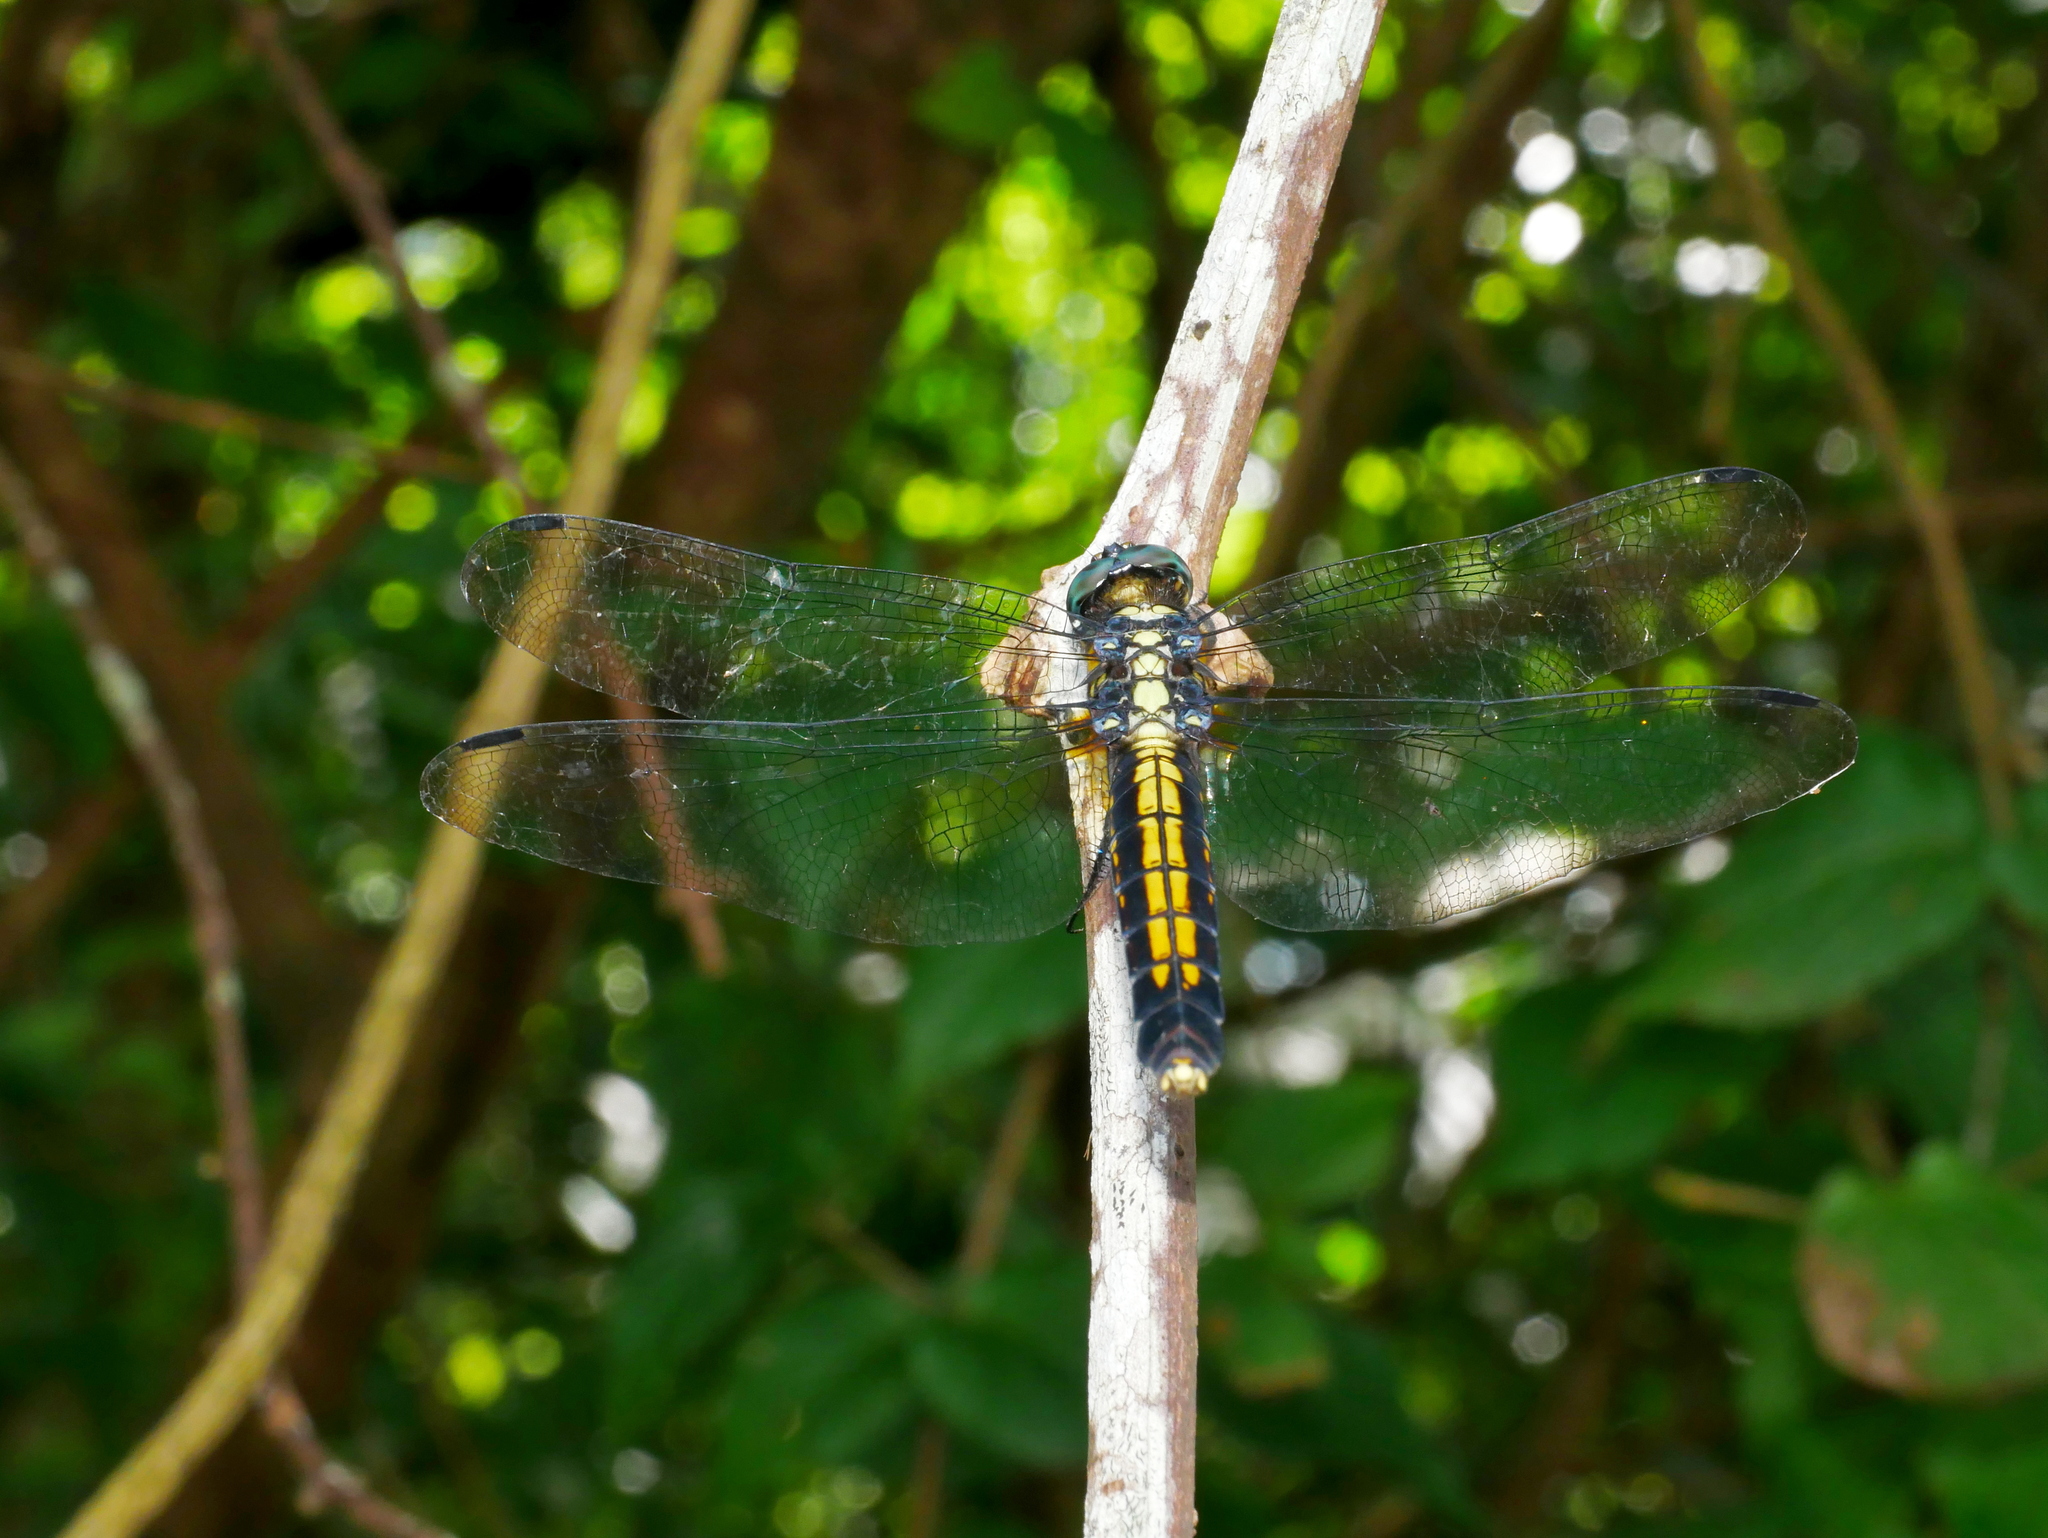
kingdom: Animalia
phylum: Arthropoda
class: Insecta
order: Odonata
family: Libellulidae
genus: Orthetrum
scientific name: Orthetrum triangulare
